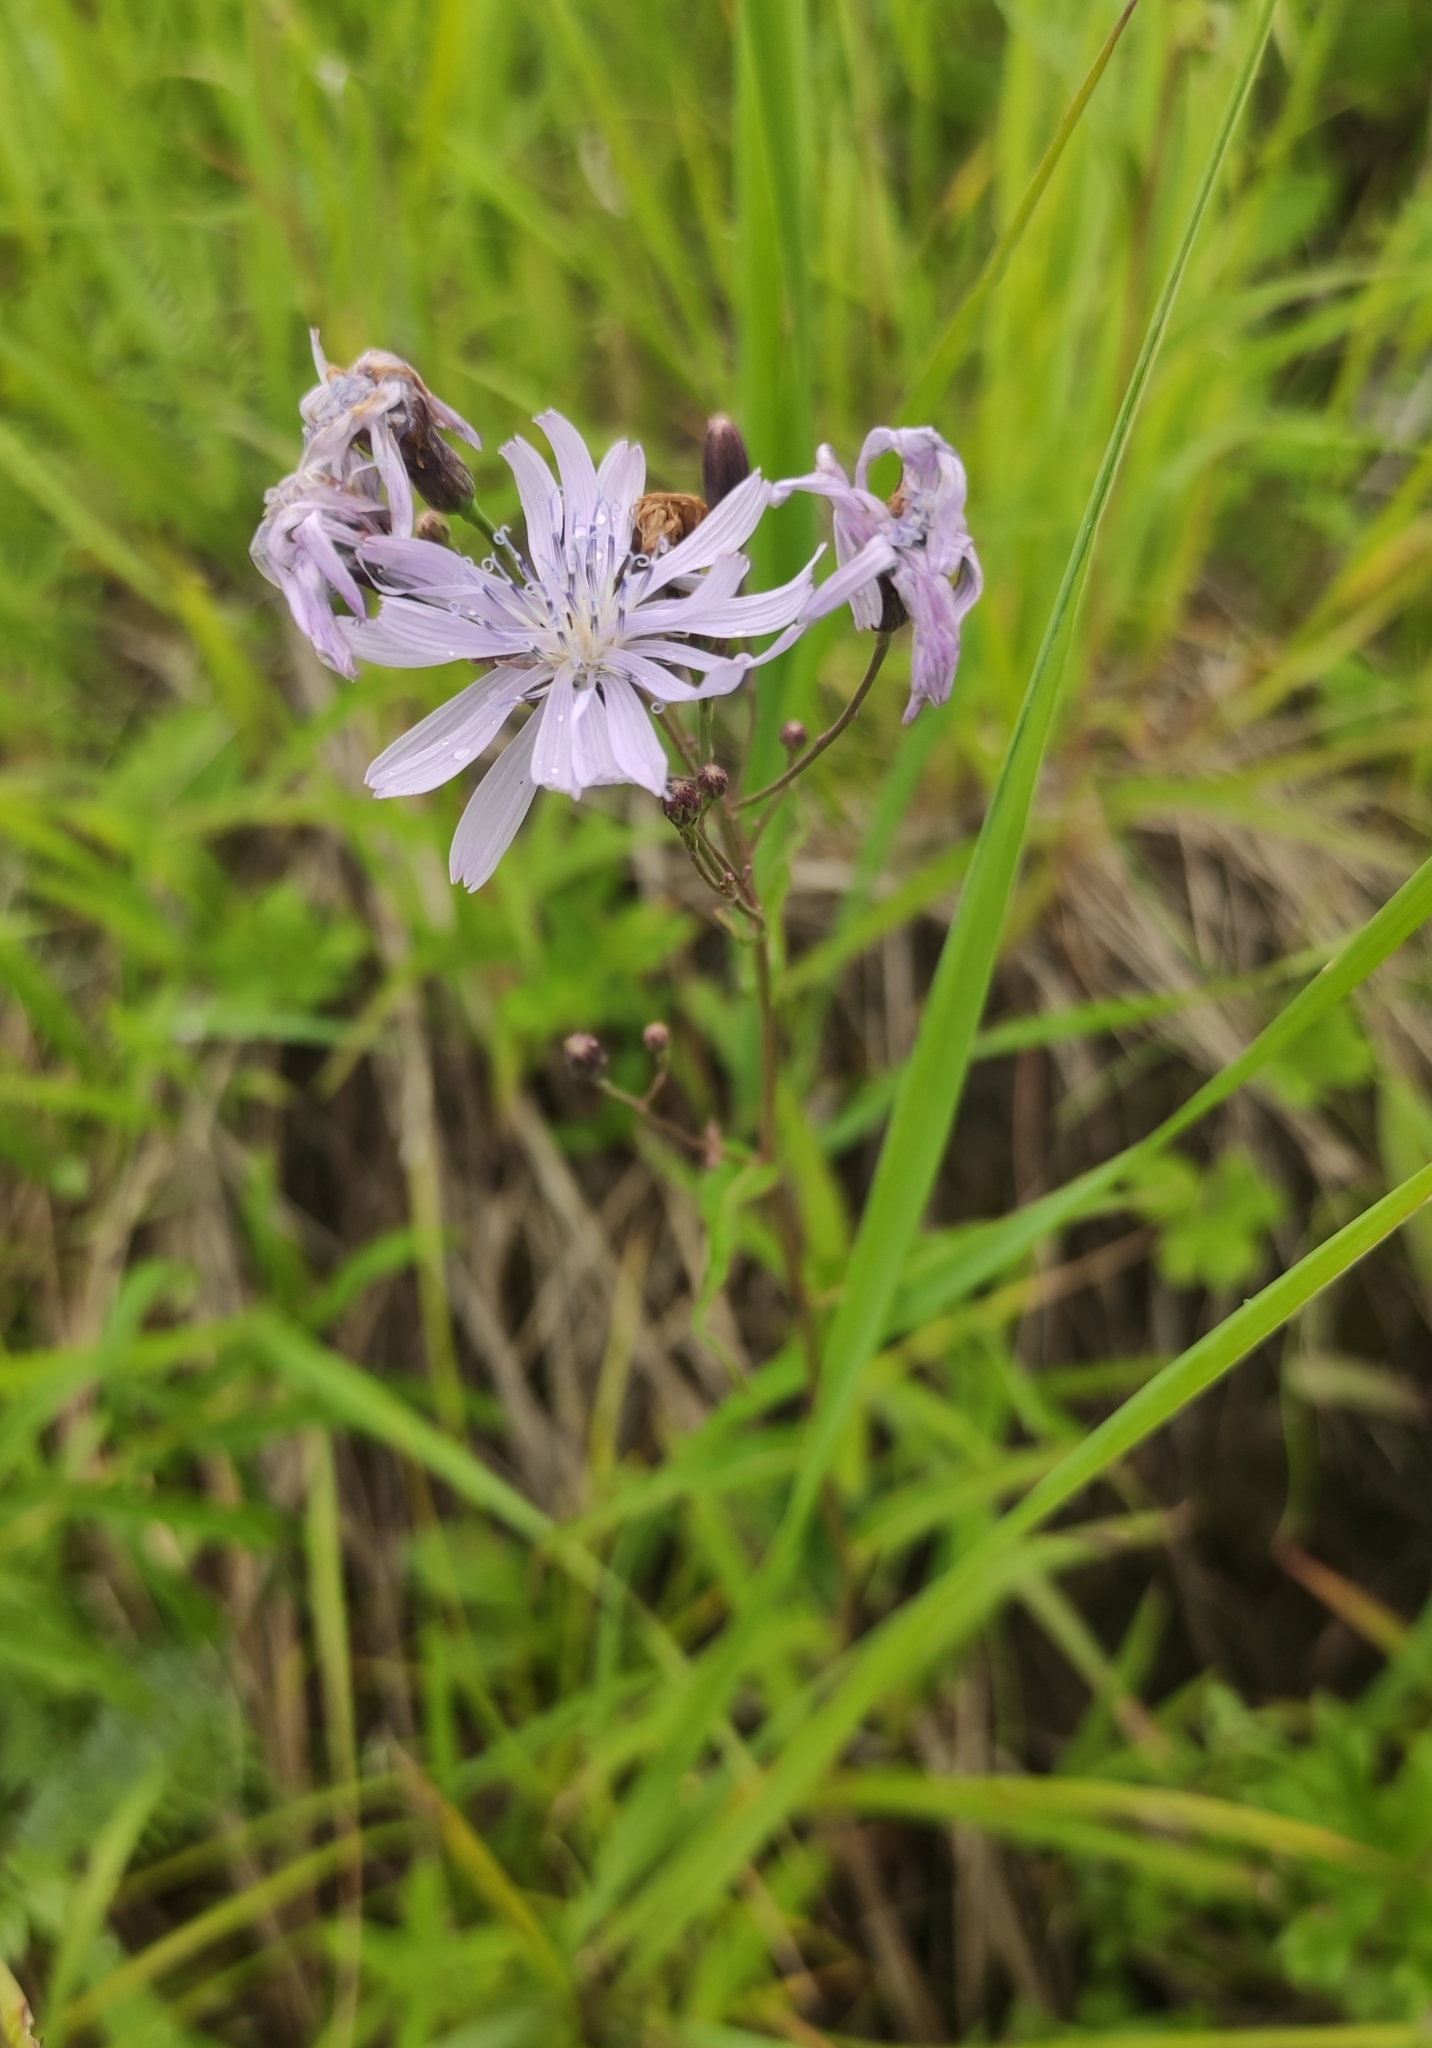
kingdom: Plantae
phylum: Tracheophyta
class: Magnoliopsida
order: Asterales
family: Asteraceae
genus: Lactuca
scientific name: Lactuca sibirica
